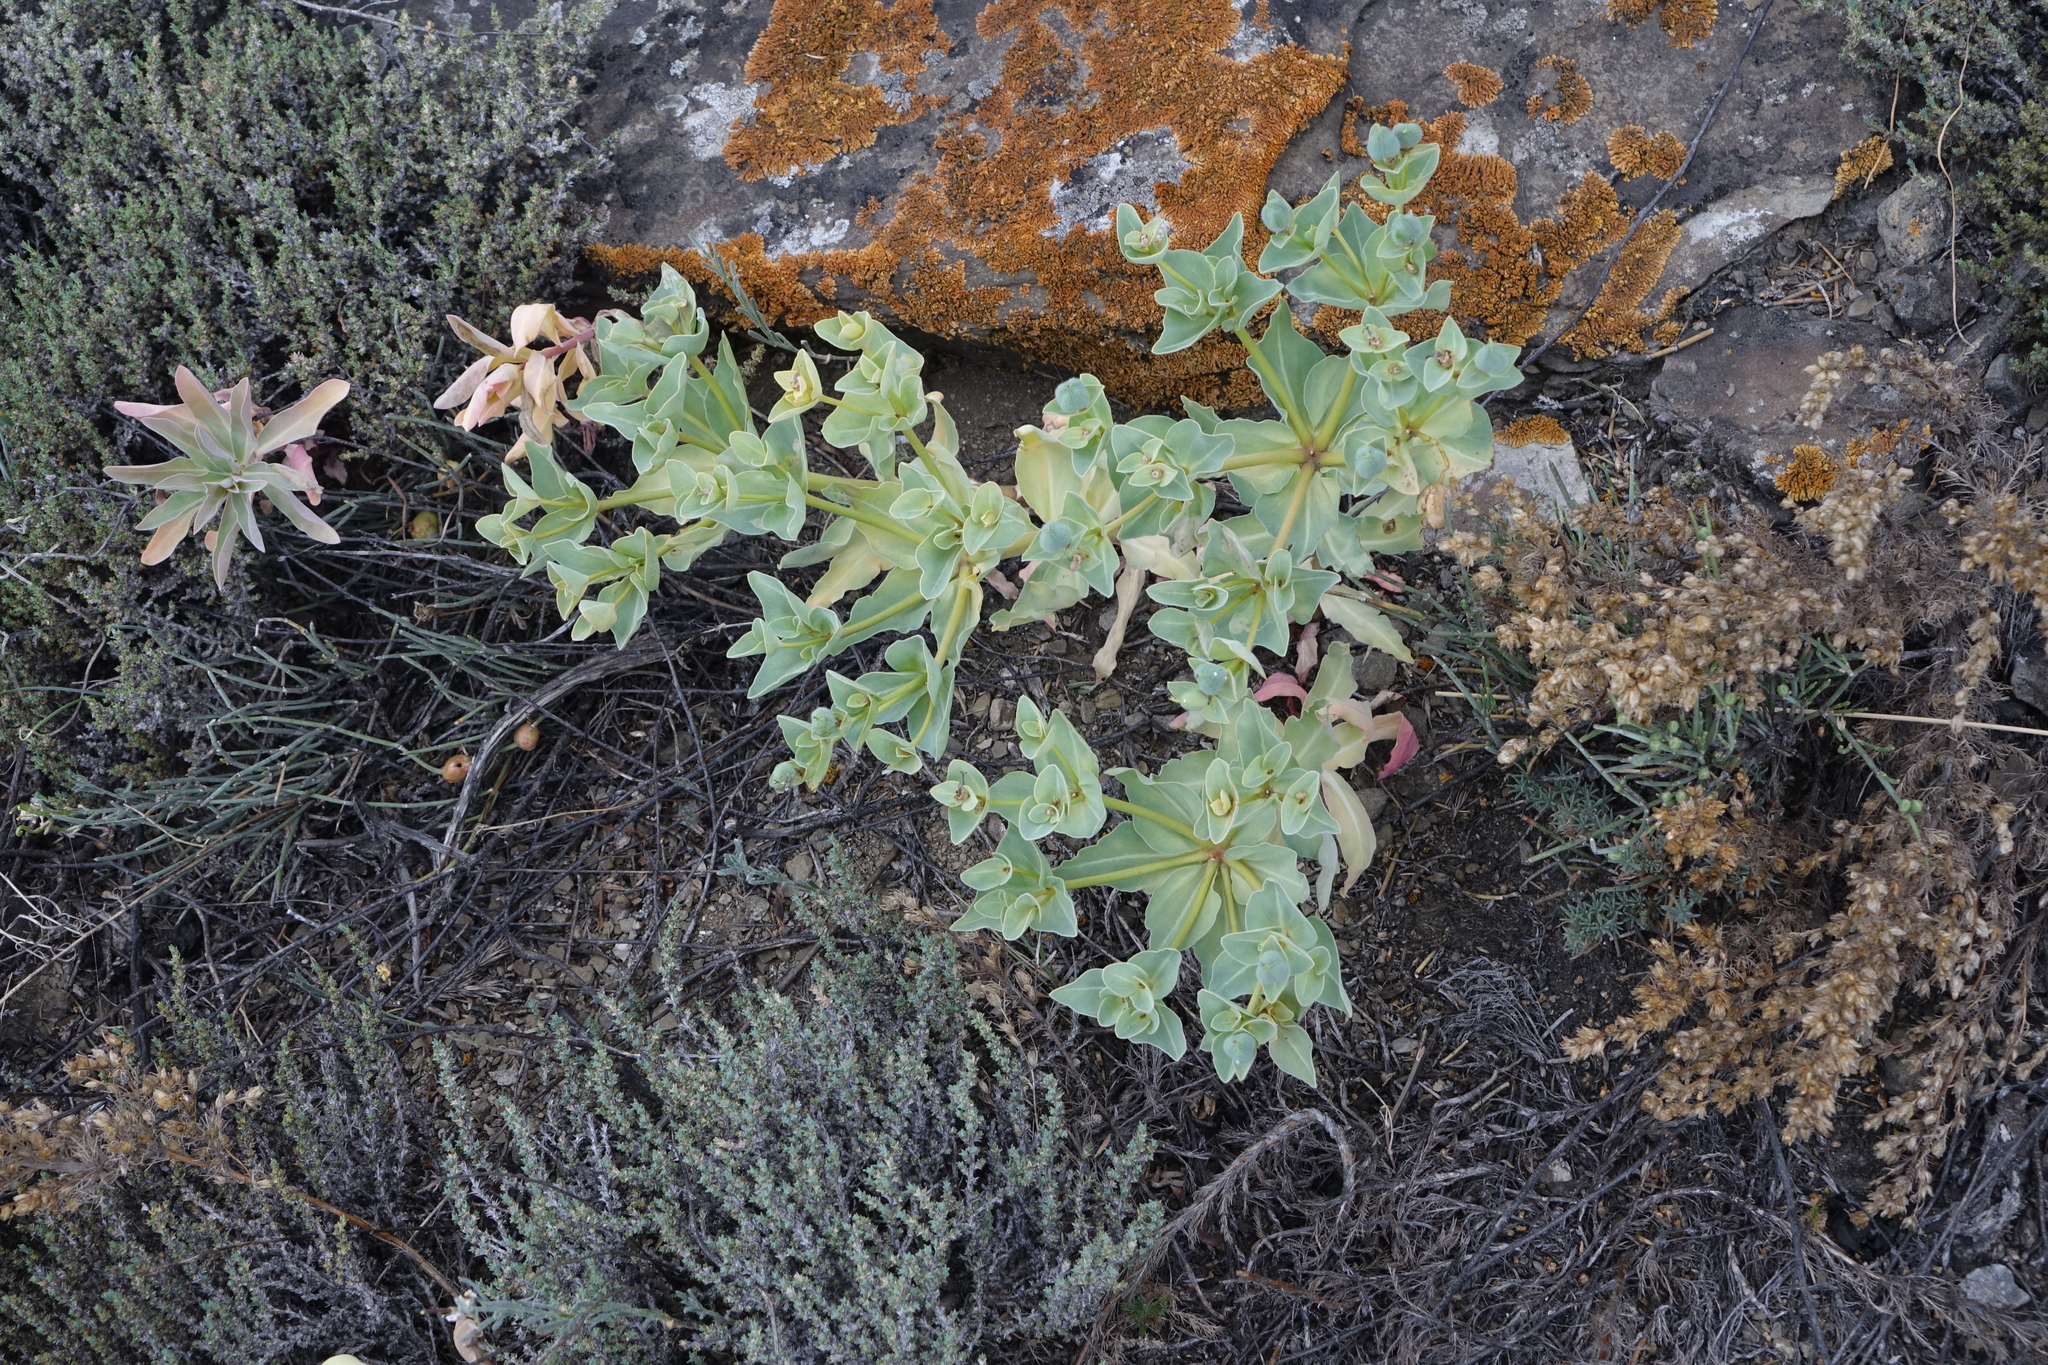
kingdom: Plantae
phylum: Tracheophyta
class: Magnoliopsida
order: Malpighiales
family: Euphorbiaceae
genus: Euphorbia
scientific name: Euphorbia mongolica
